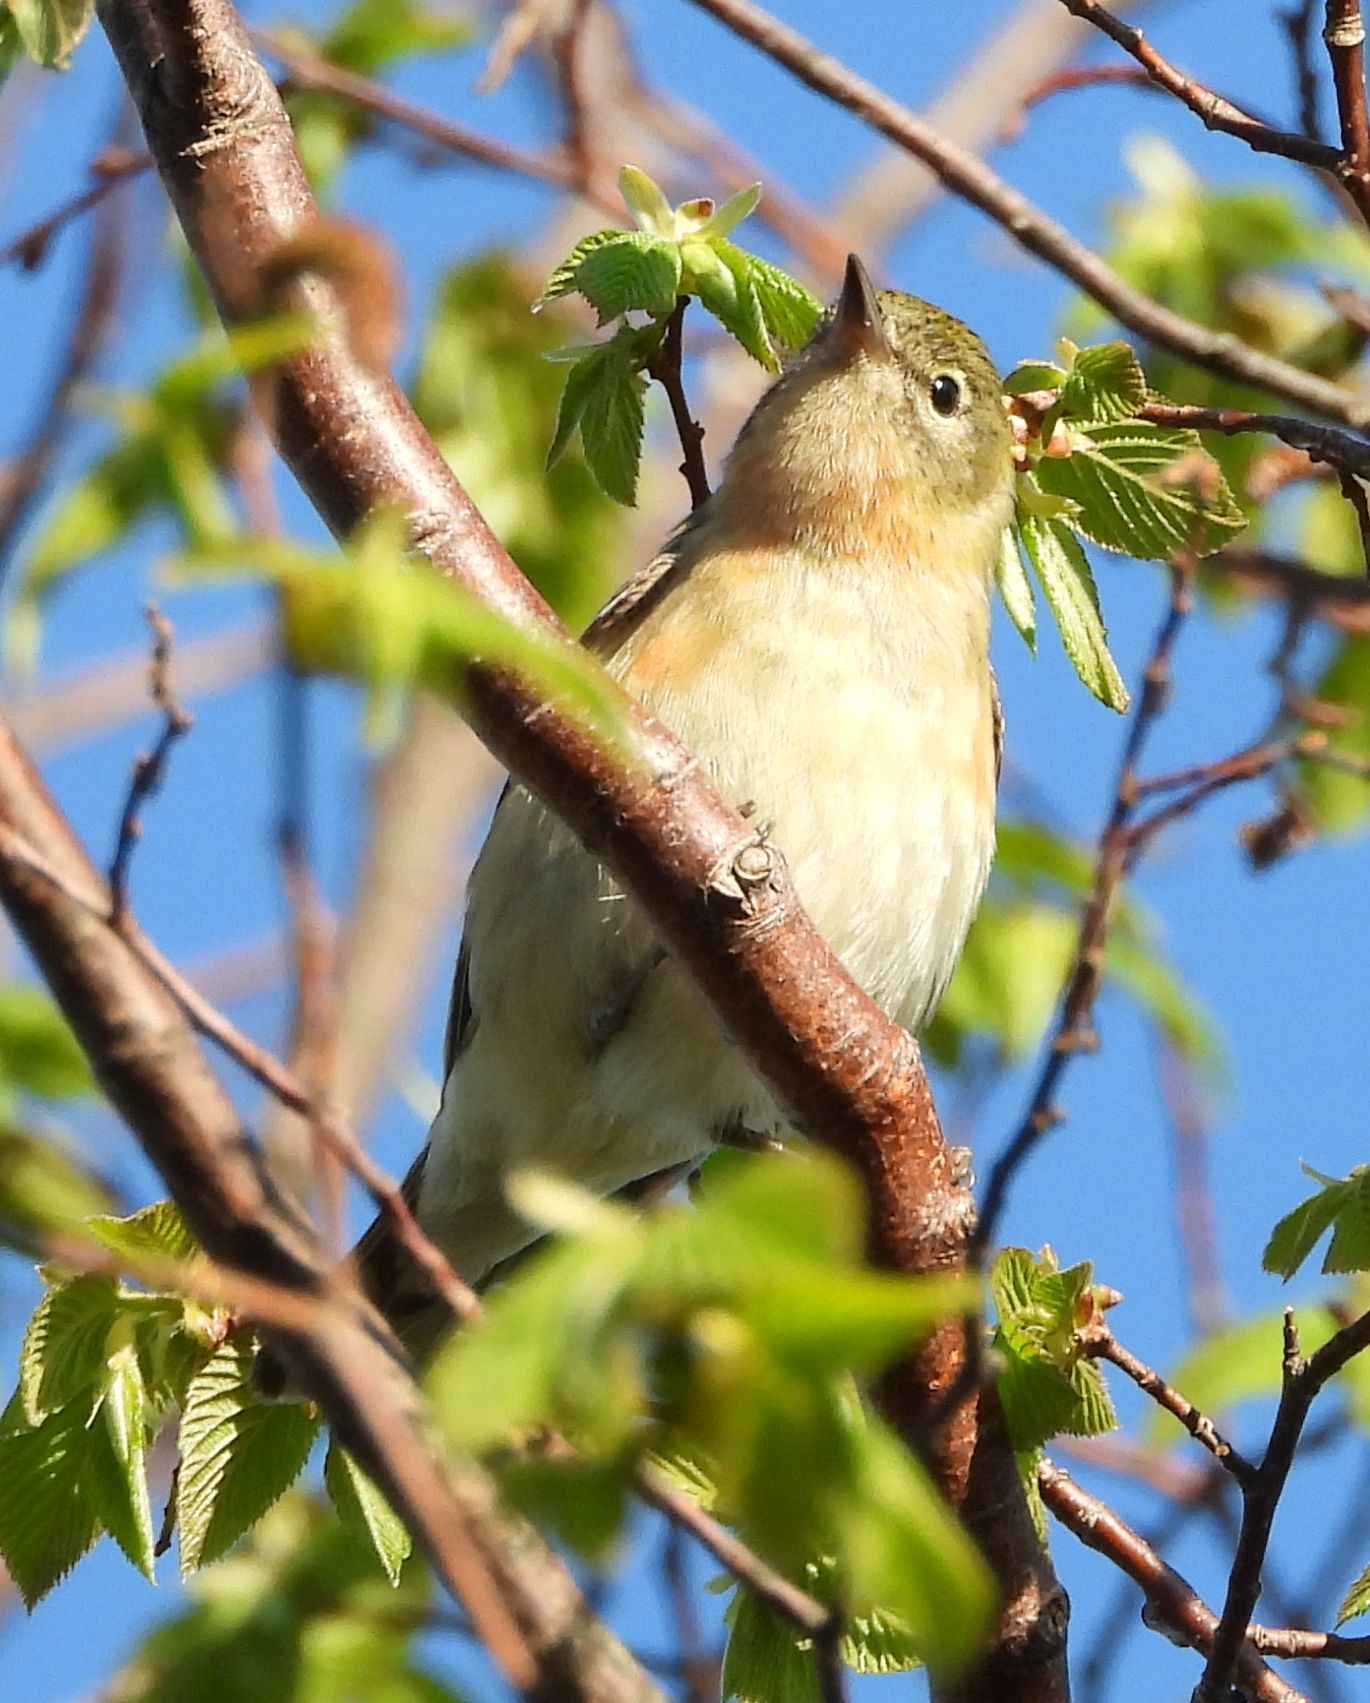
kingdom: Animalia
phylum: Chordata
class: Aves
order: Passeriformes
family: Parulidae
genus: Setophaga
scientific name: Setophaga castanea
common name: Bay-breasted warbler
